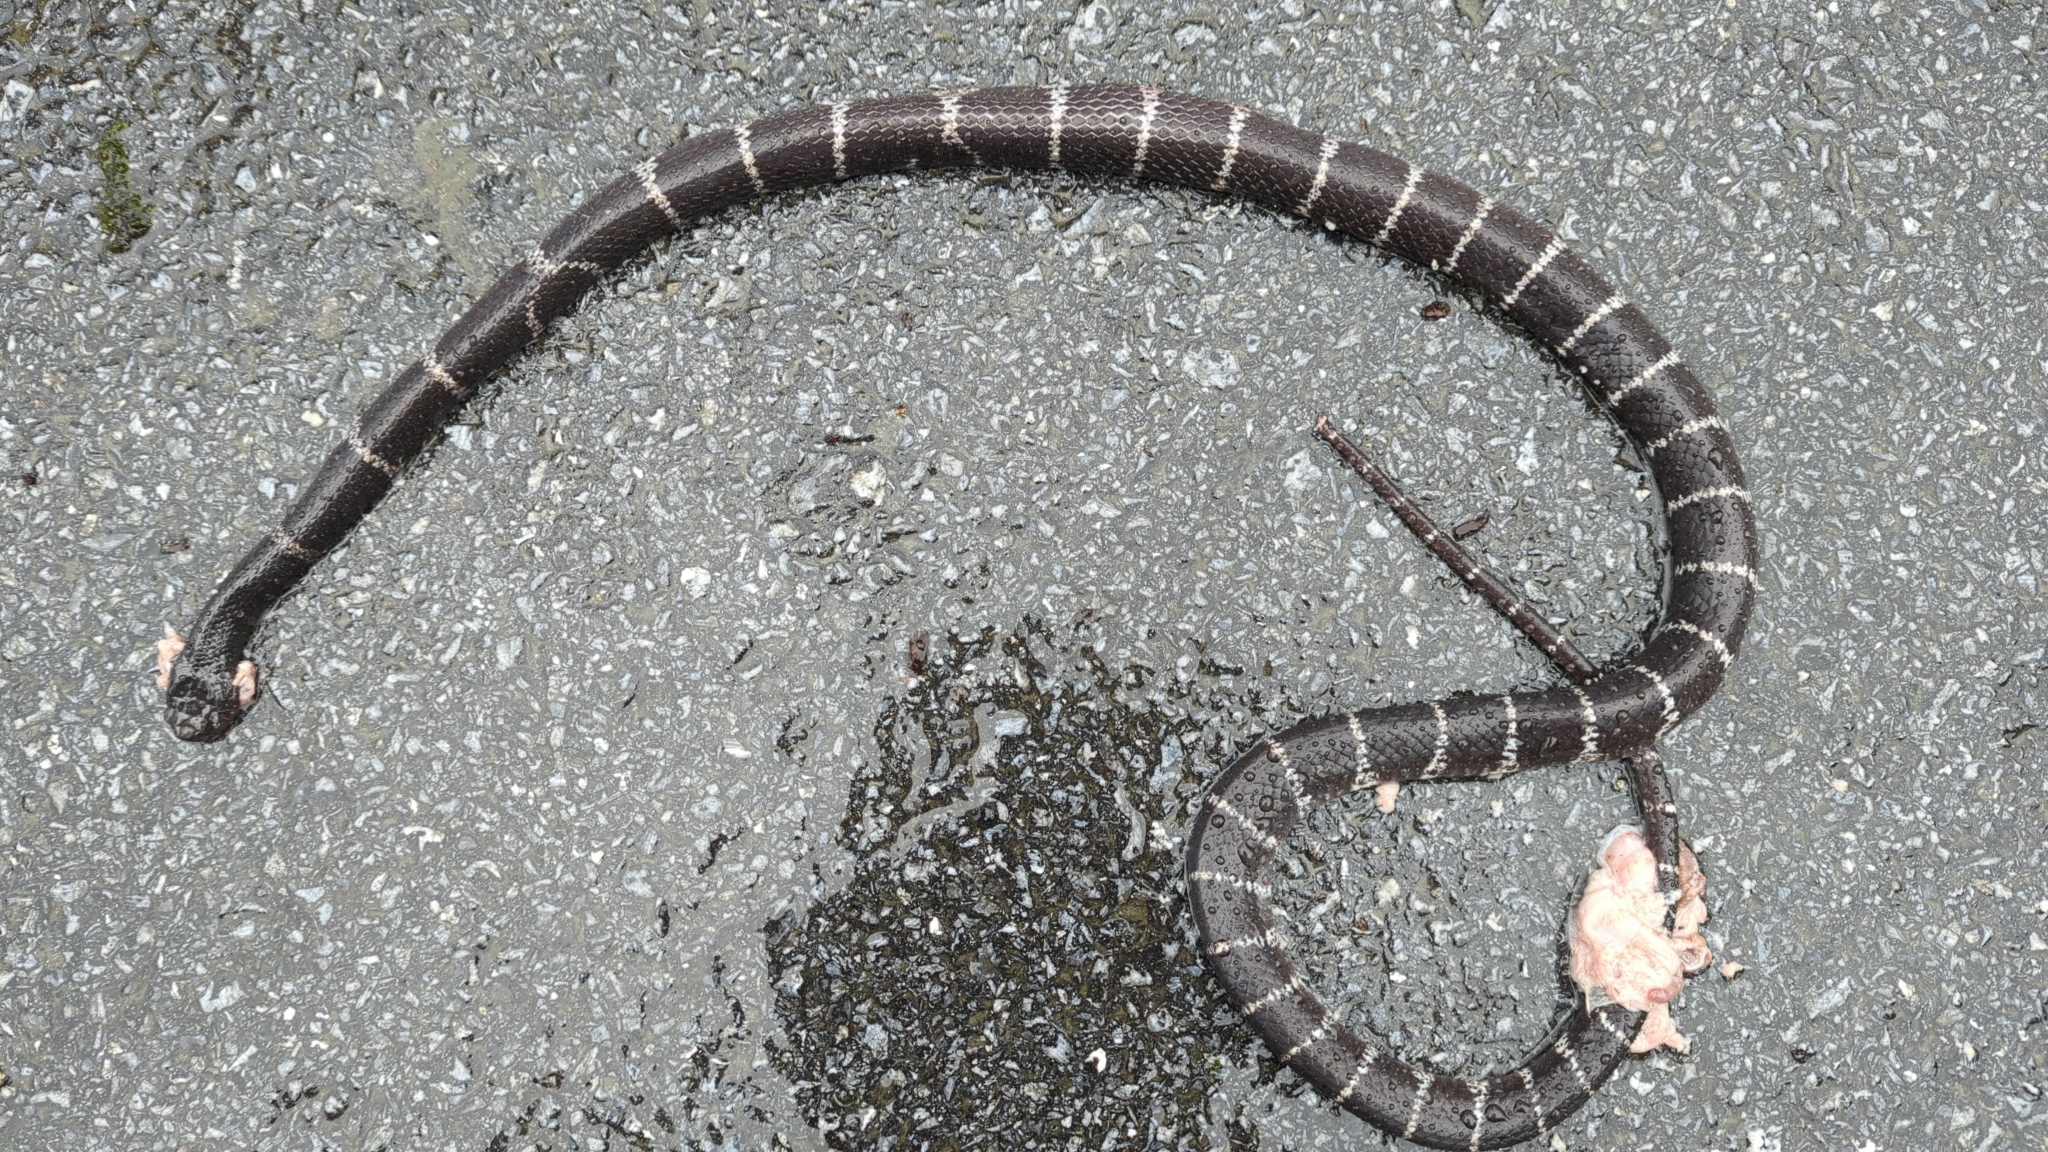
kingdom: Animalia
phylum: Chordata
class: Squamata
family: Colubridae
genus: Lycodon
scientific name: Lycodon septentrionalis
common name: Northern large-toothed snake
